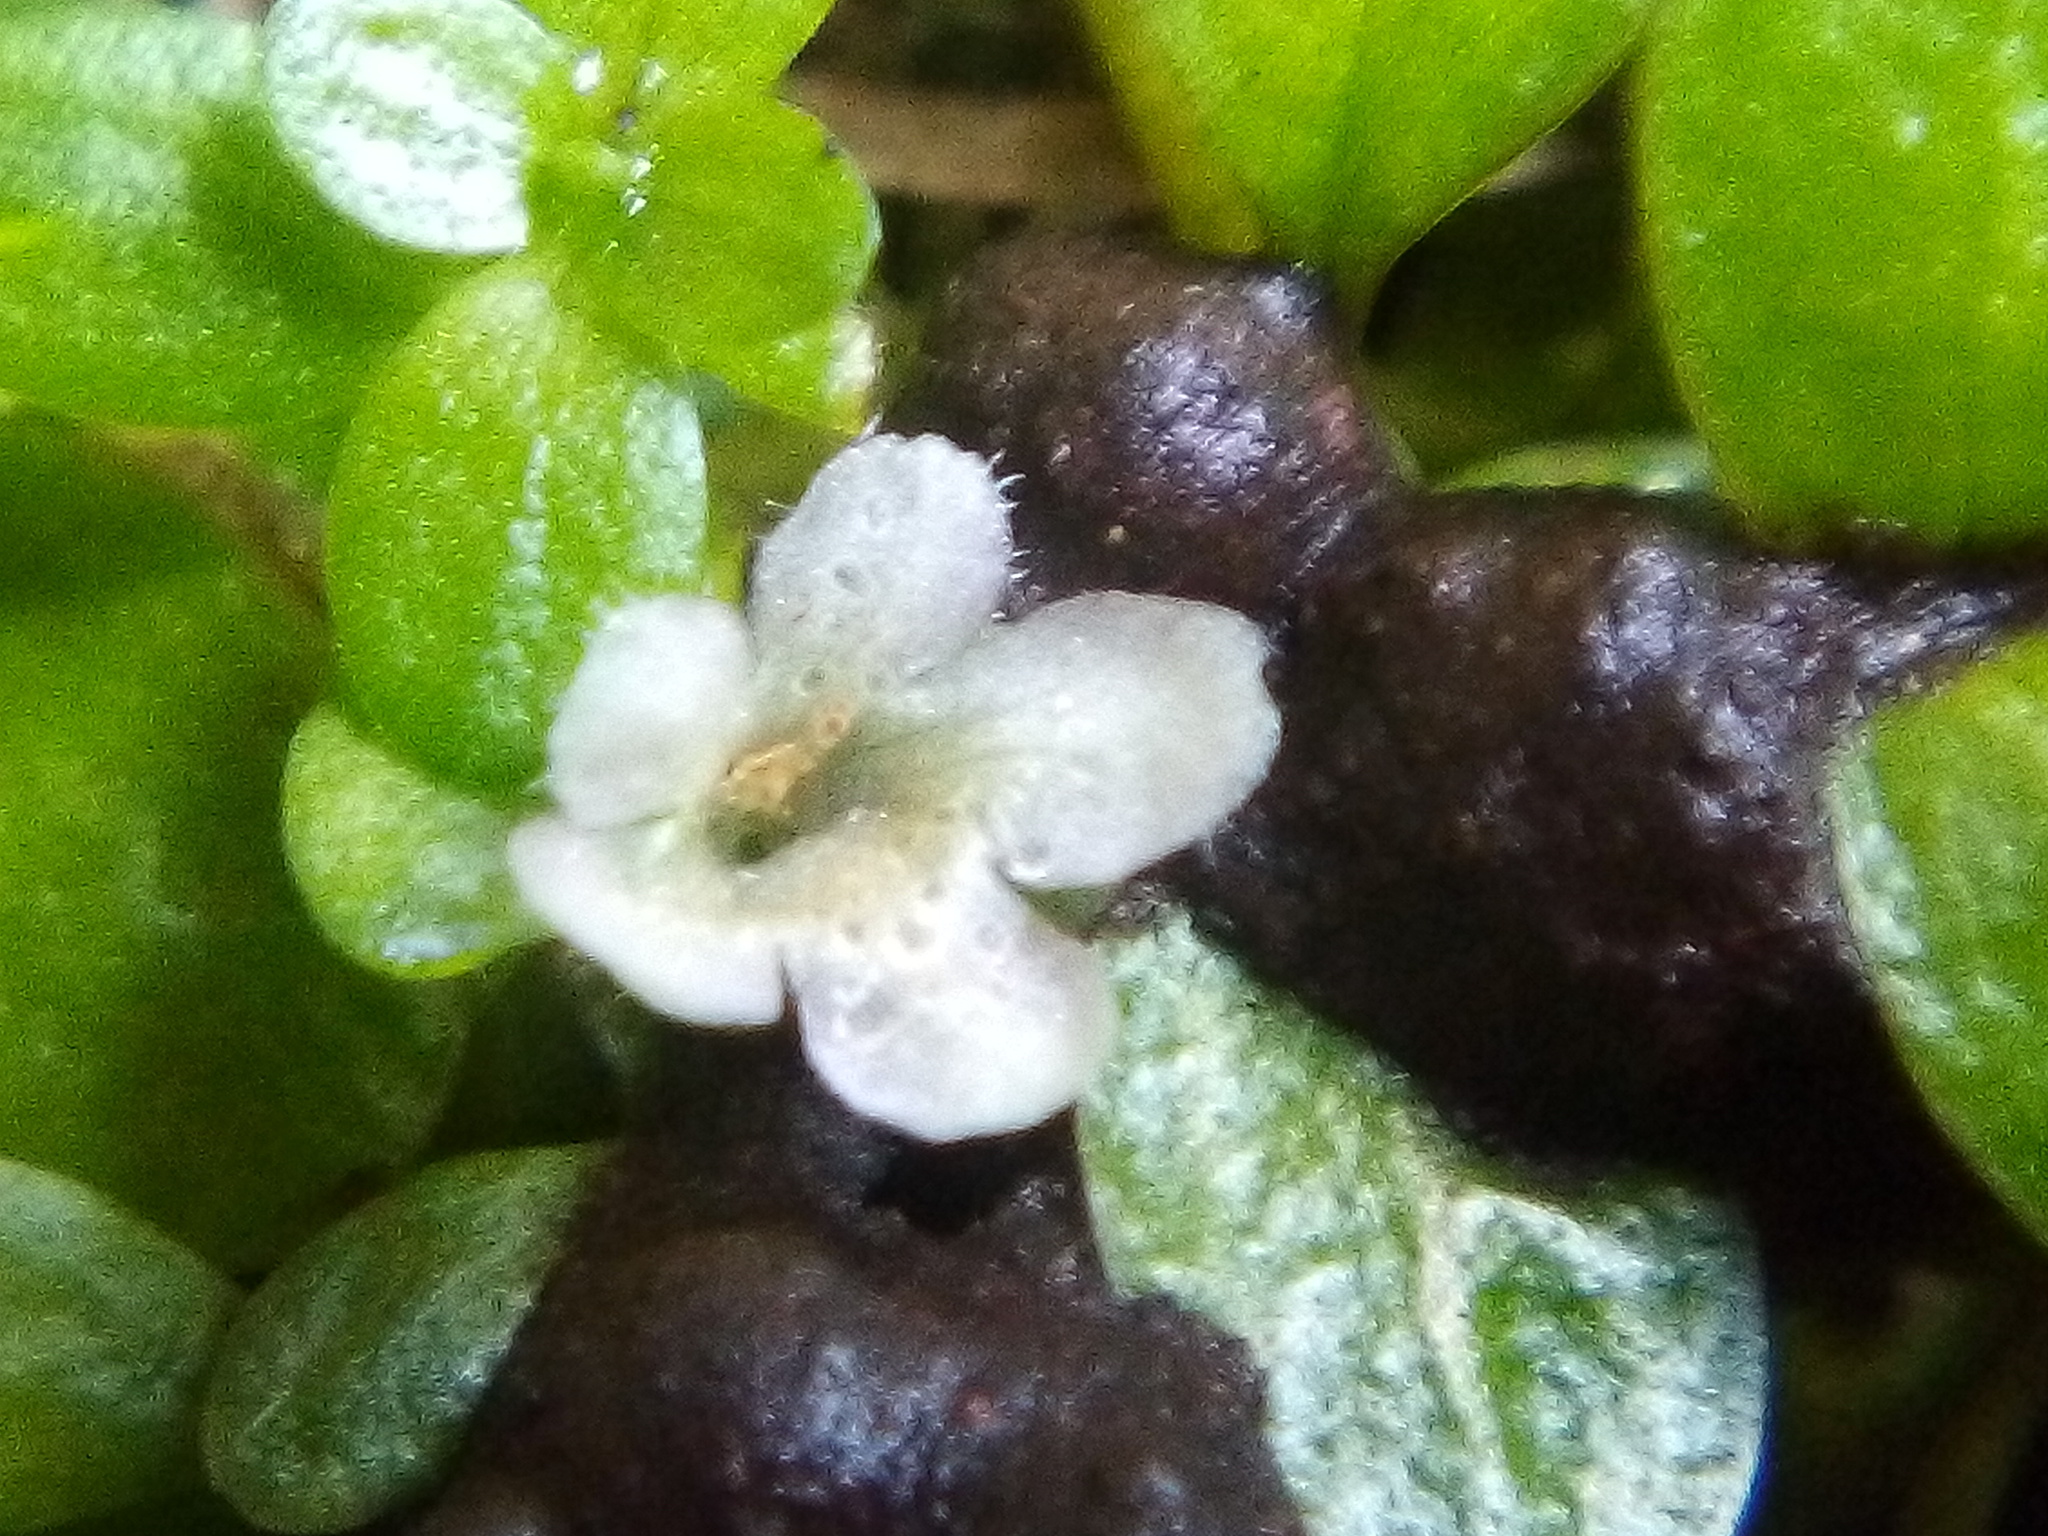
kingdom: Plantae
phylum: Tracheophyta
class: Magnoliopsida
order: Lamiales
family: Phrymaceae
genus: Glossostigma
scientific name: Glossostigma elatinoides
